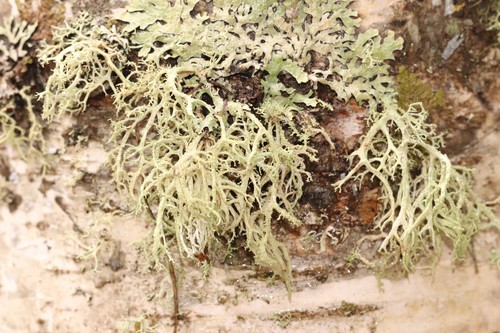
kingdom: Fungi
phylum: Ascomycota
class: Lecanoromycetes
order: Lecanorales
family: Parmeliaceae
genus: Evernia
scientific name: Evernia mesomorpha
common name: Boreal oak moss lichen
